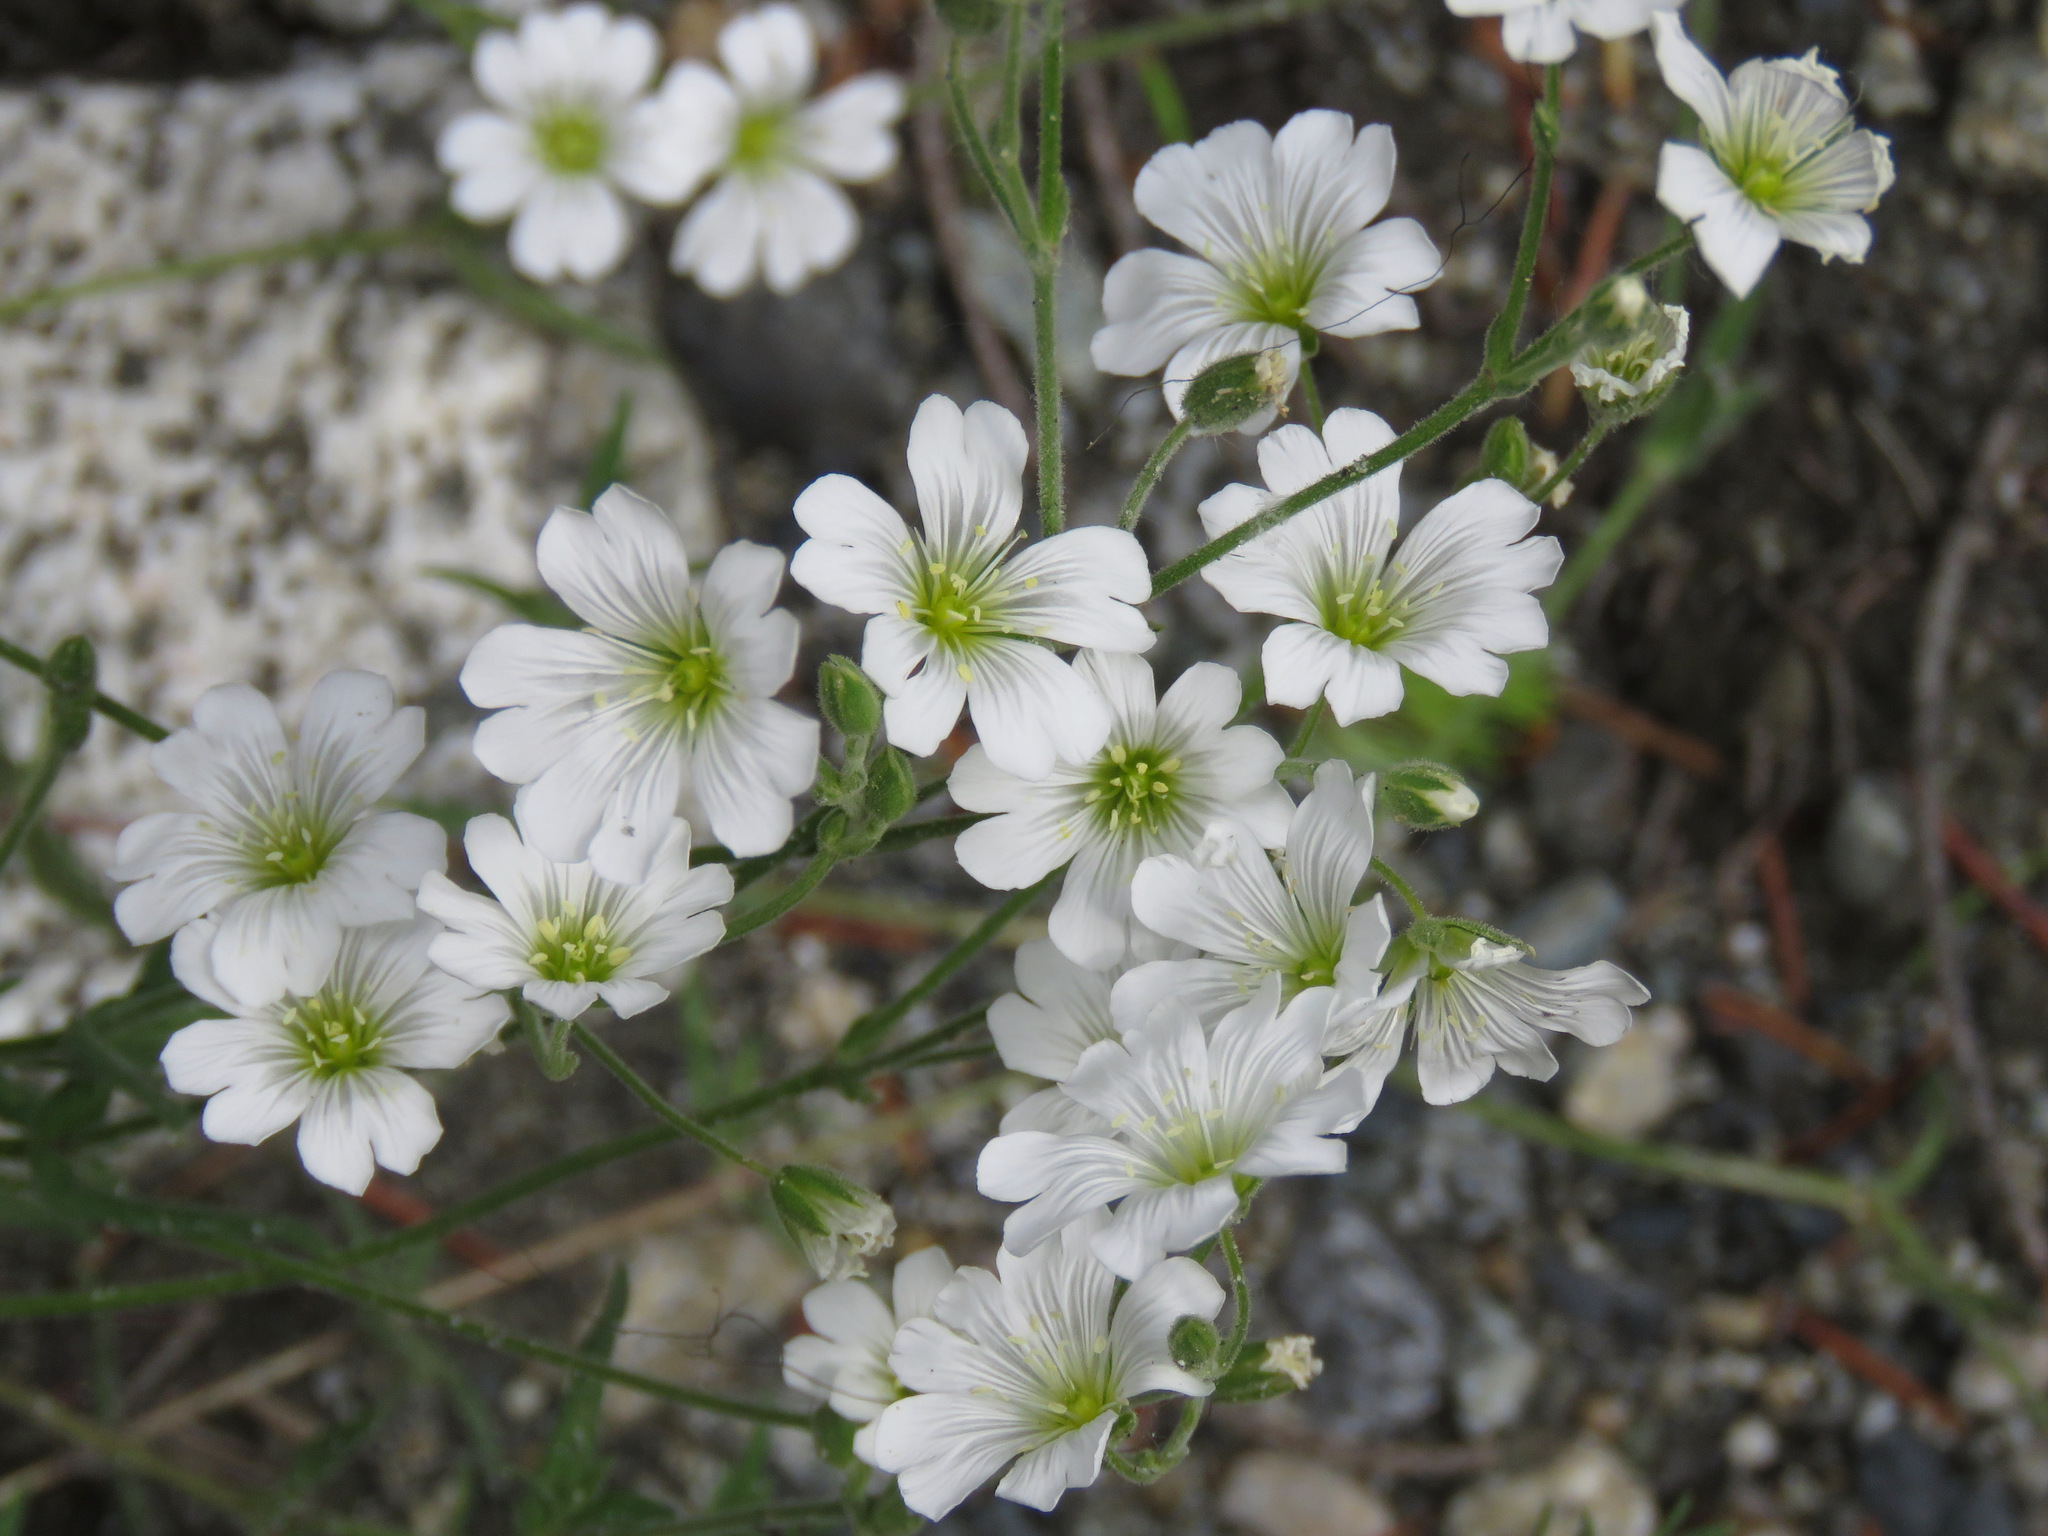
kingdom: Plantae
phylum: Tracheophyta
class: Magnoliopsida
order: Caryophyllales
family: Caryophyllaceae
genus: Cerastium
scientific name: Cerastium arvense
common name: Field mouse-ear
